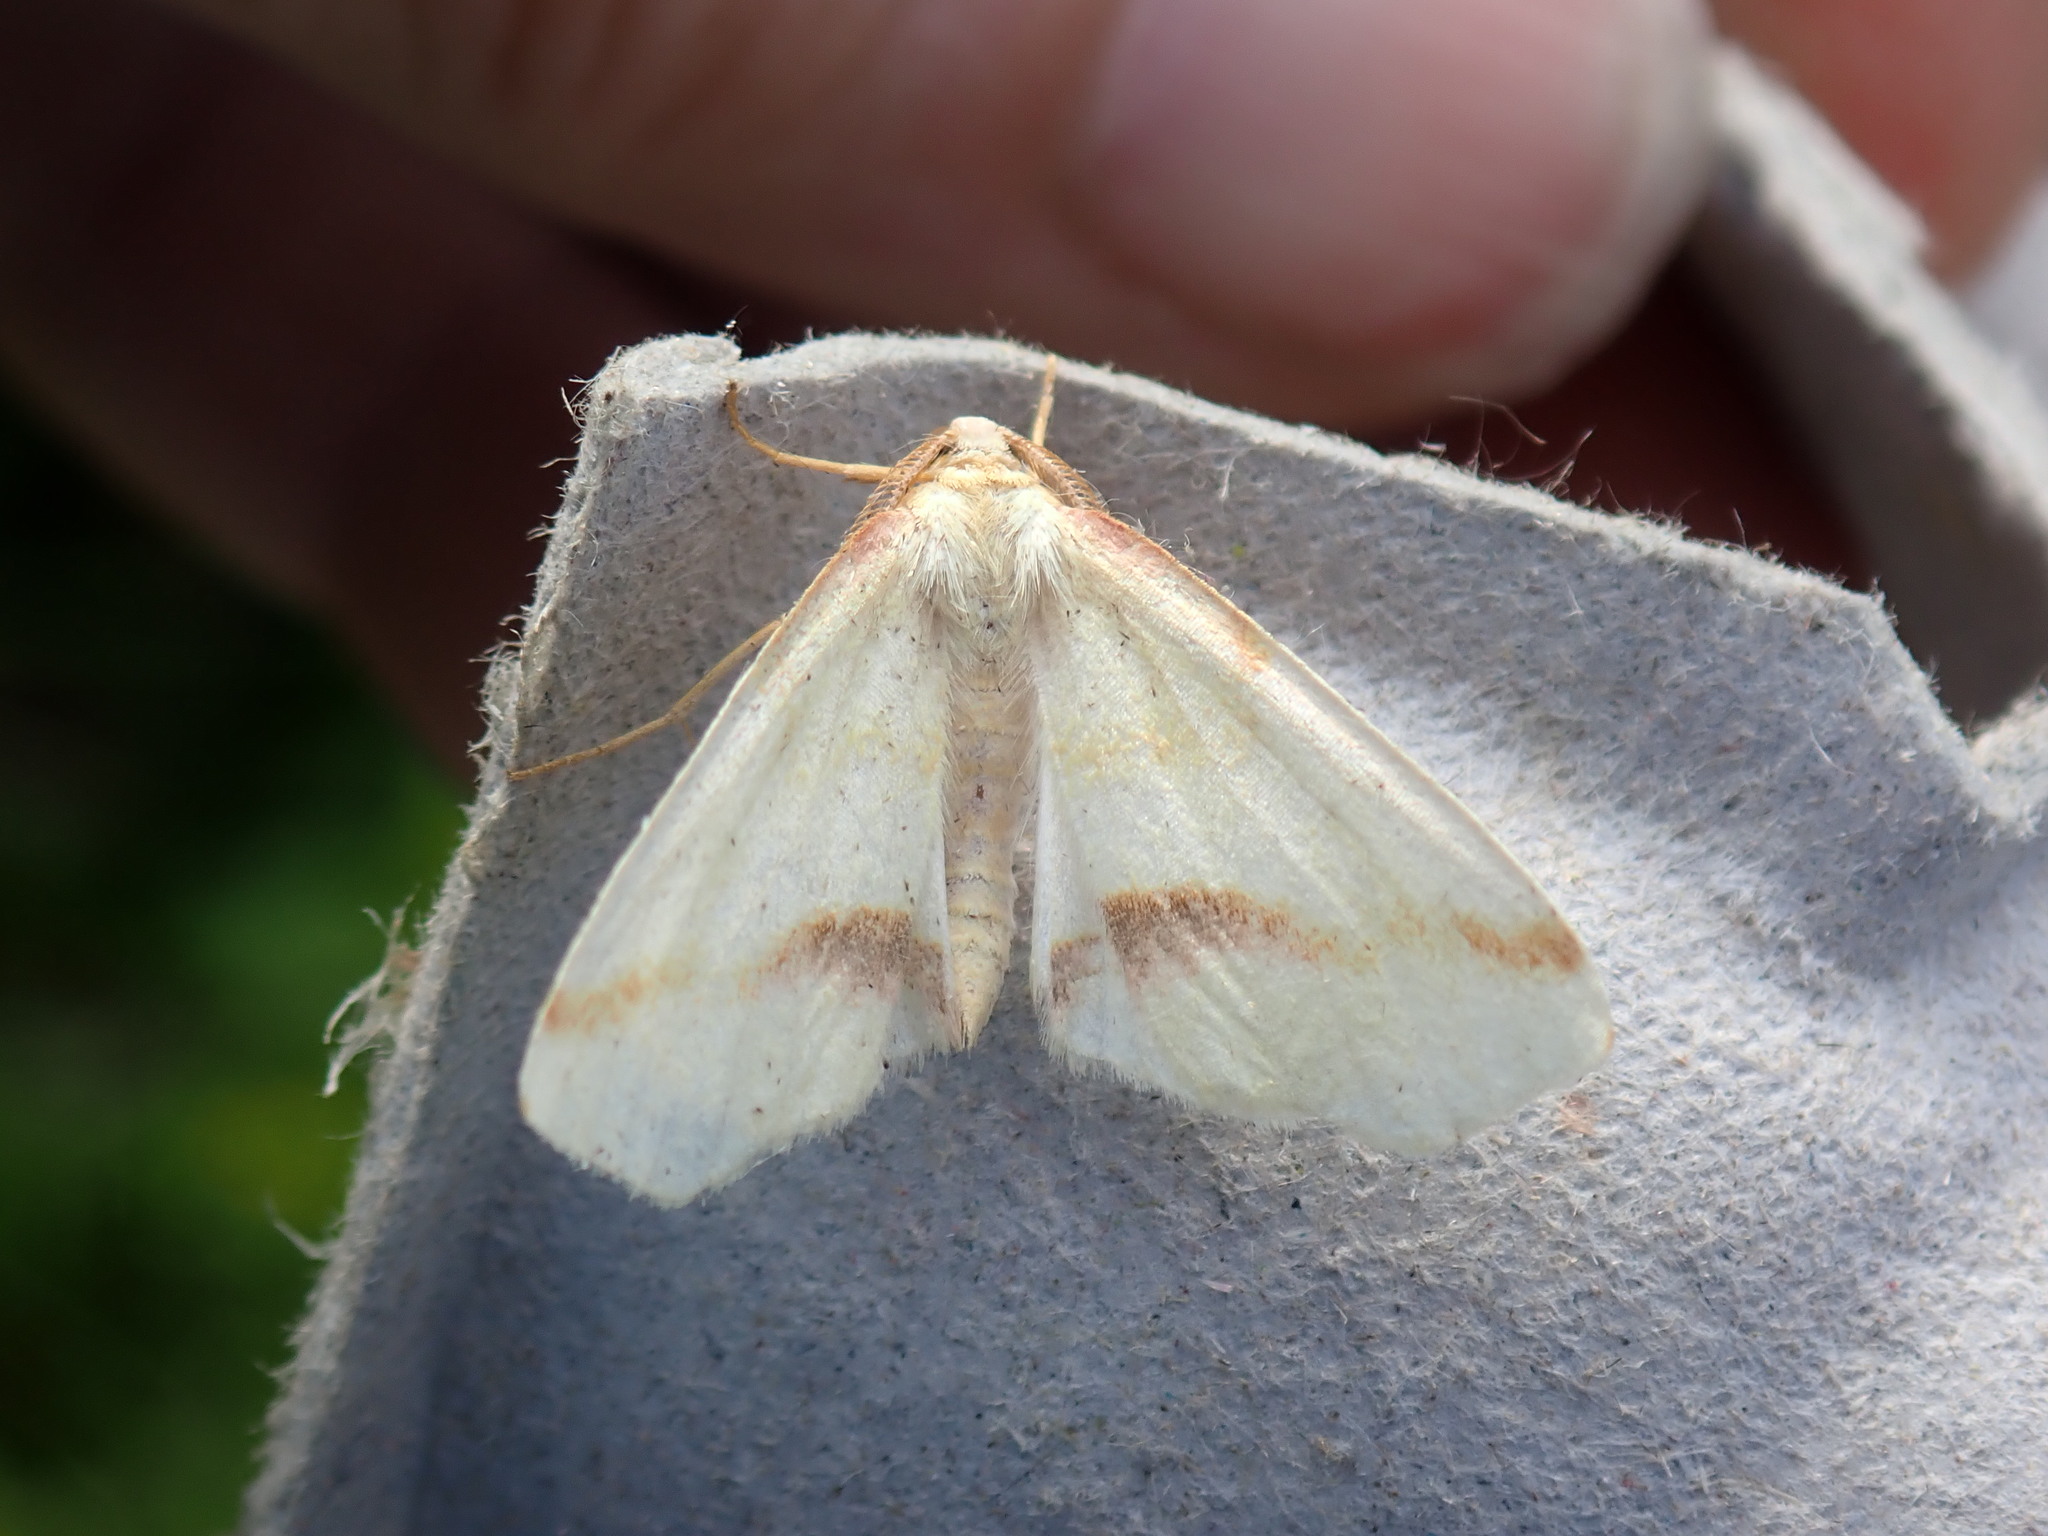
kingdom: Animalia
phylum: Arthropoda
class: Insecta
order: Lepidoptera
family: Geometridae
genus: Plagodis
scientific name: Plagodis serinaria
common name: Lemon plagodis
